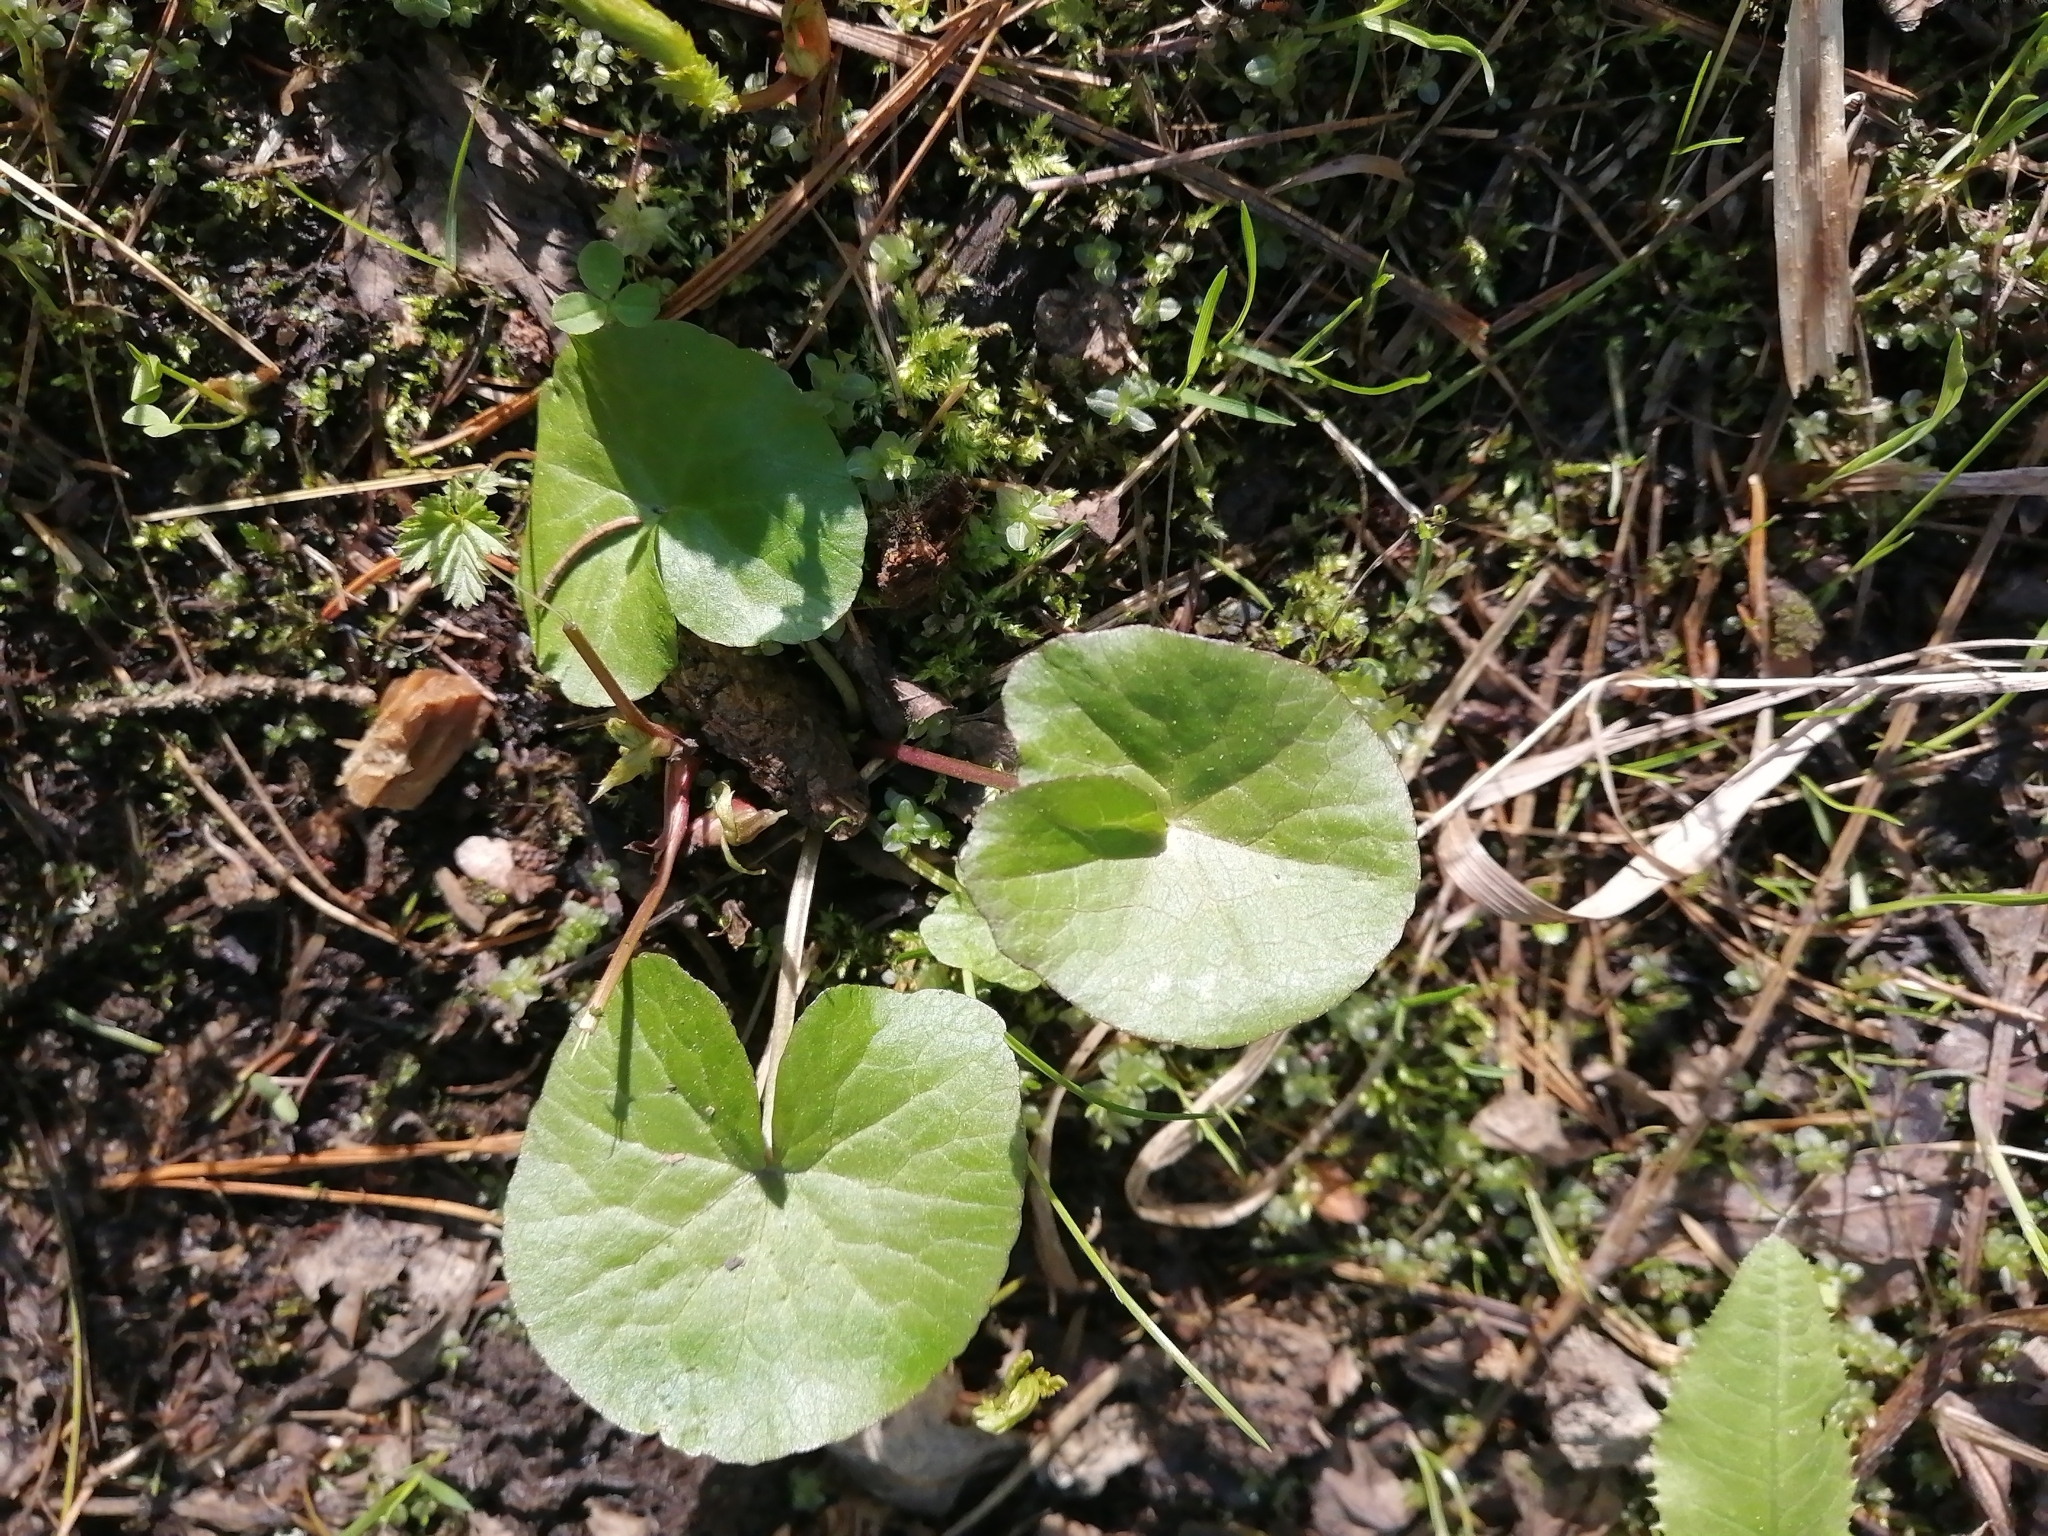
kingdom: Plantae
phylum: Tracheophyta
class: Magnoliopsida
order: Ranunculales
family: Ranunculaceae
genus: Caltha
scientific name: Caltha palustris
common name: Marsh marigold
